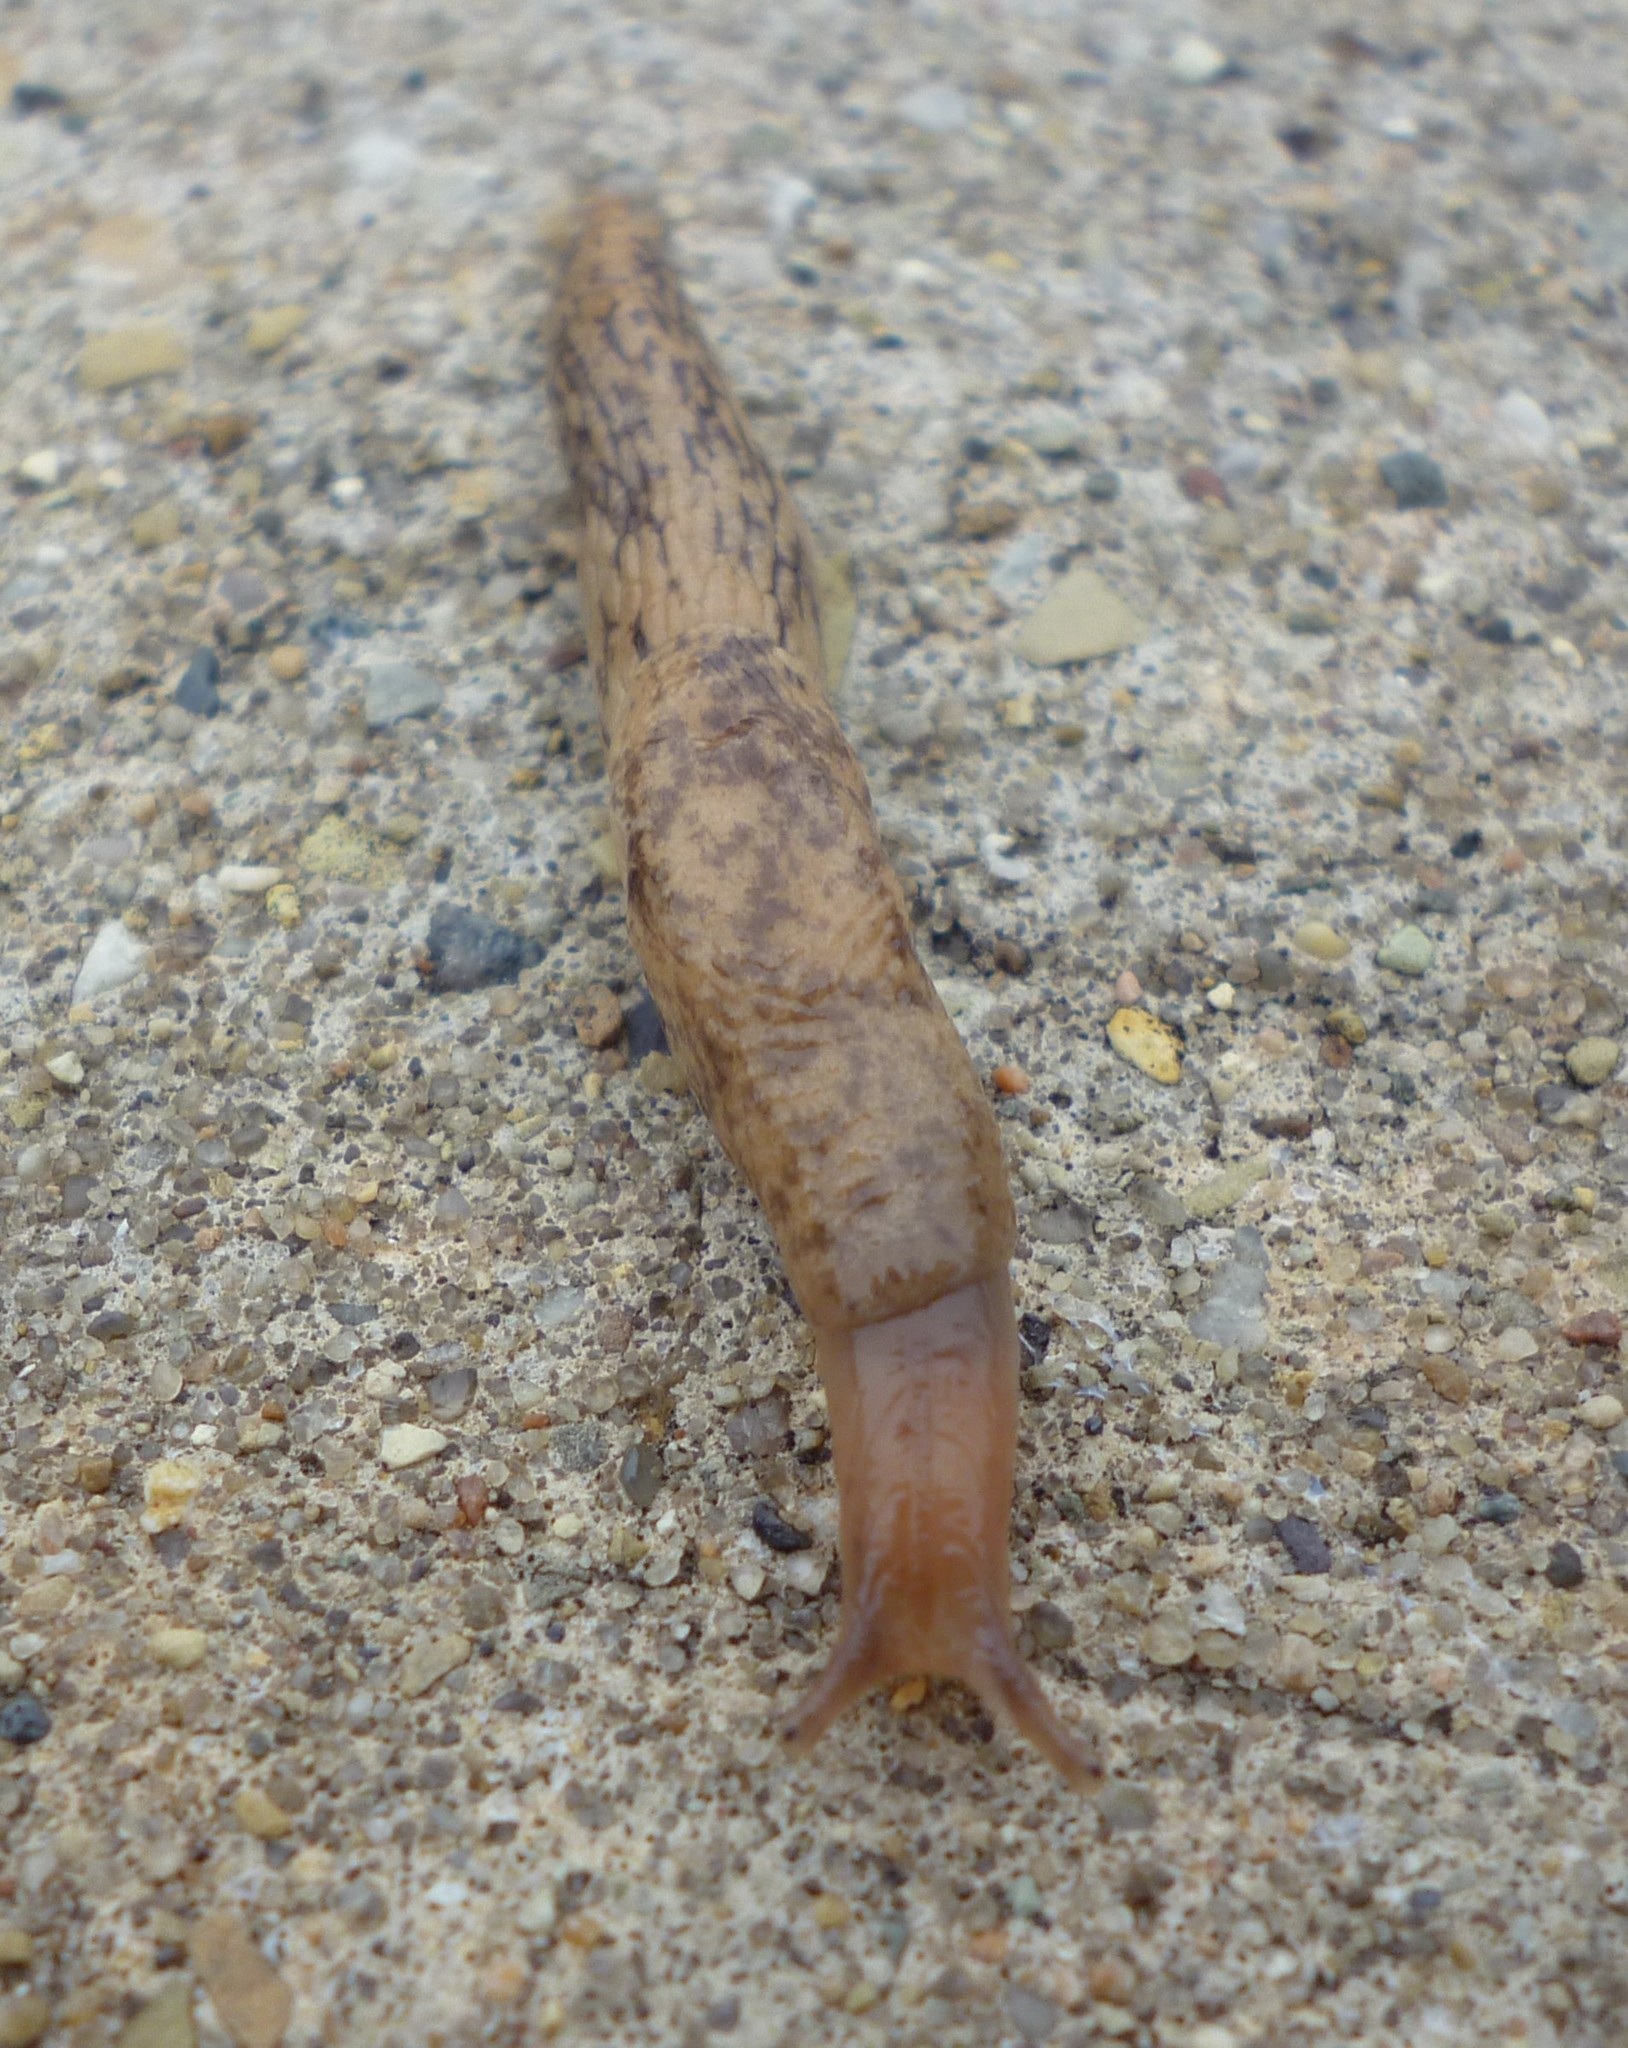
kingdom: Animalia
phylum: Mollusca
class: Gastropoda
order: Stylommatophora
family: Agriolimacidae
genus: Deroceras
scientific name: Deroceras reticulatum
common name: Gray field slug
